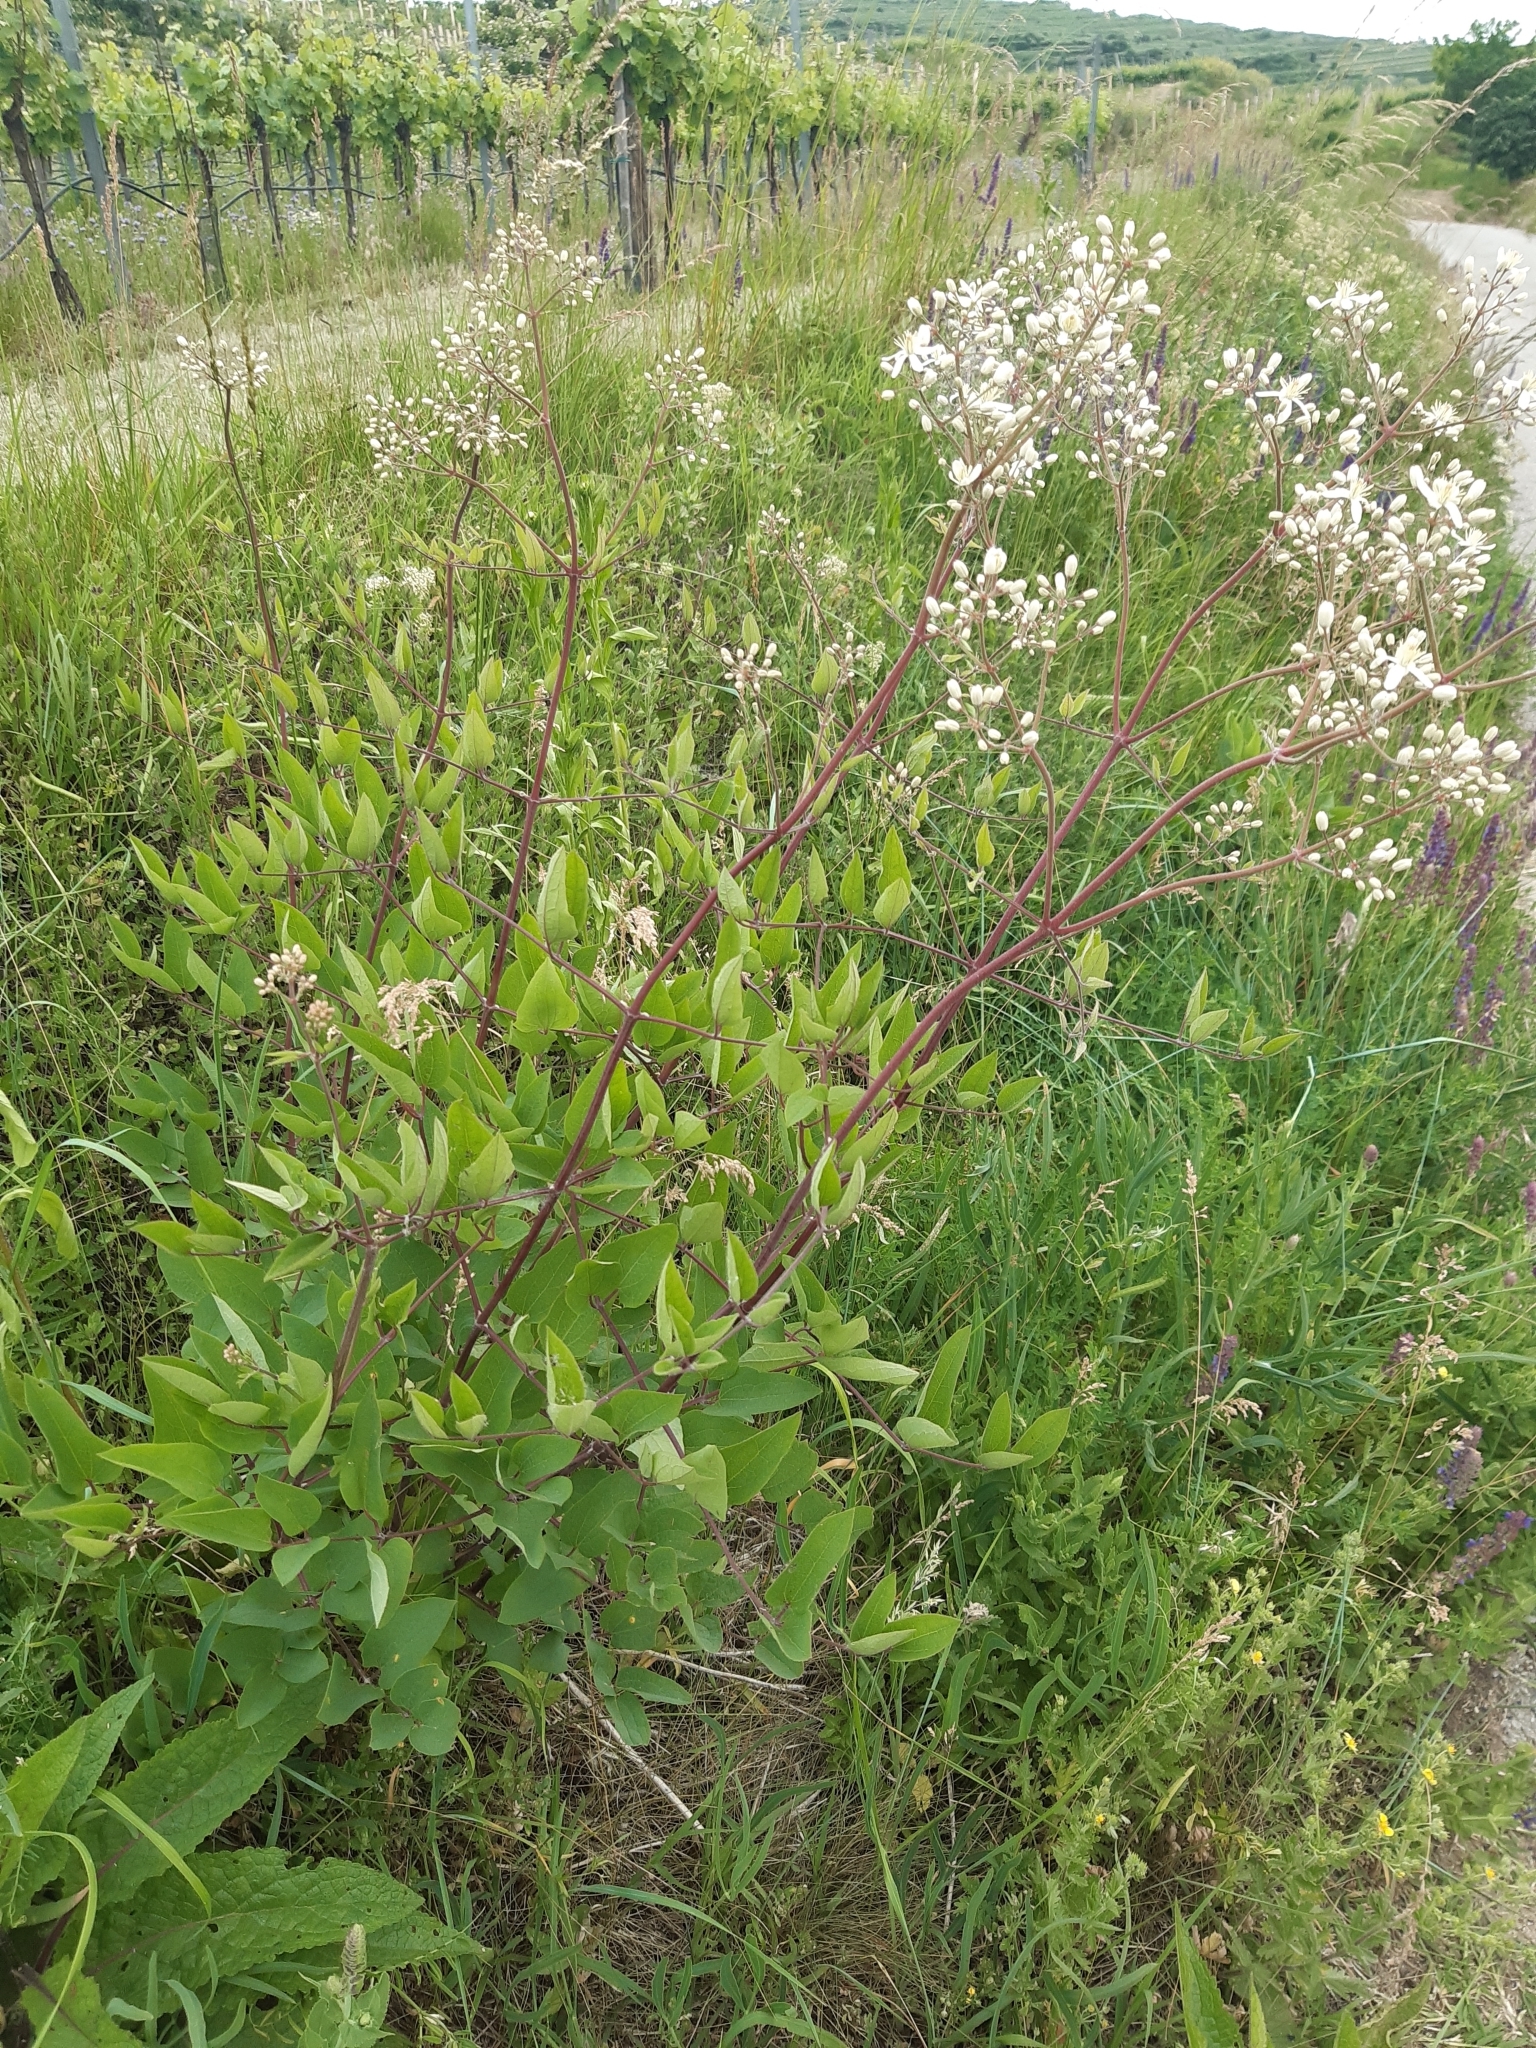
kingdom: Plantae
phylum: Tracheophyta
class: Magnoliopsida
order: Ranunculales
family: Ranunculaceae
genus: Clematis
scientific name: Clematis recta
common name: Ground clematis
